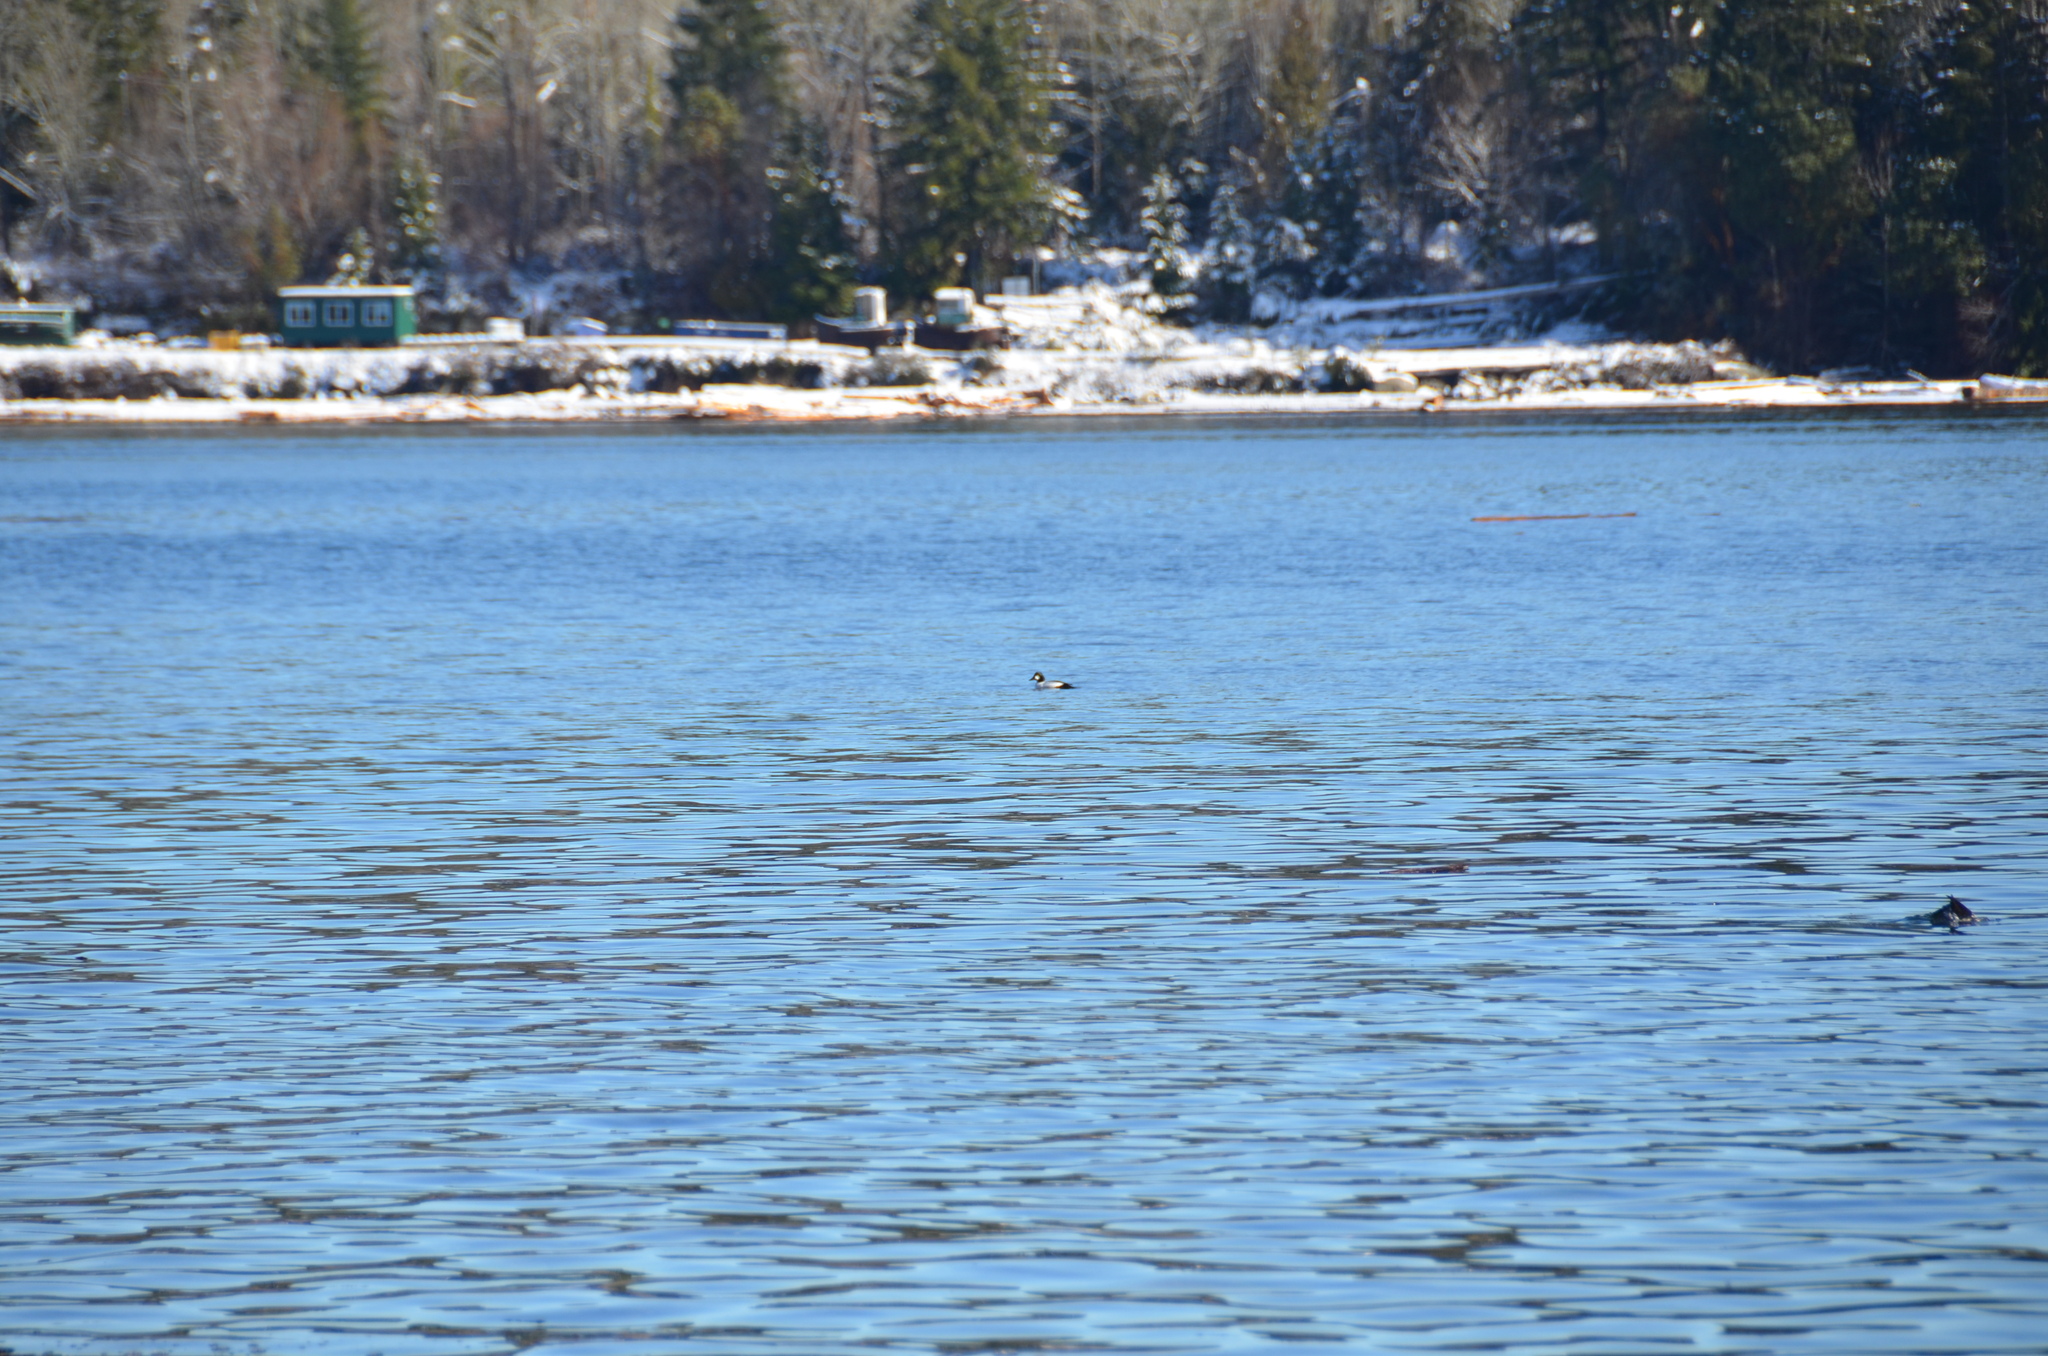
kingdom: Animalia
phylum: Chordata
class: Aves
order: Anseriformes
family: Anatidae
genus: Bucephala
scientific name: Bucephala clangula
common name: Common goldeneye
